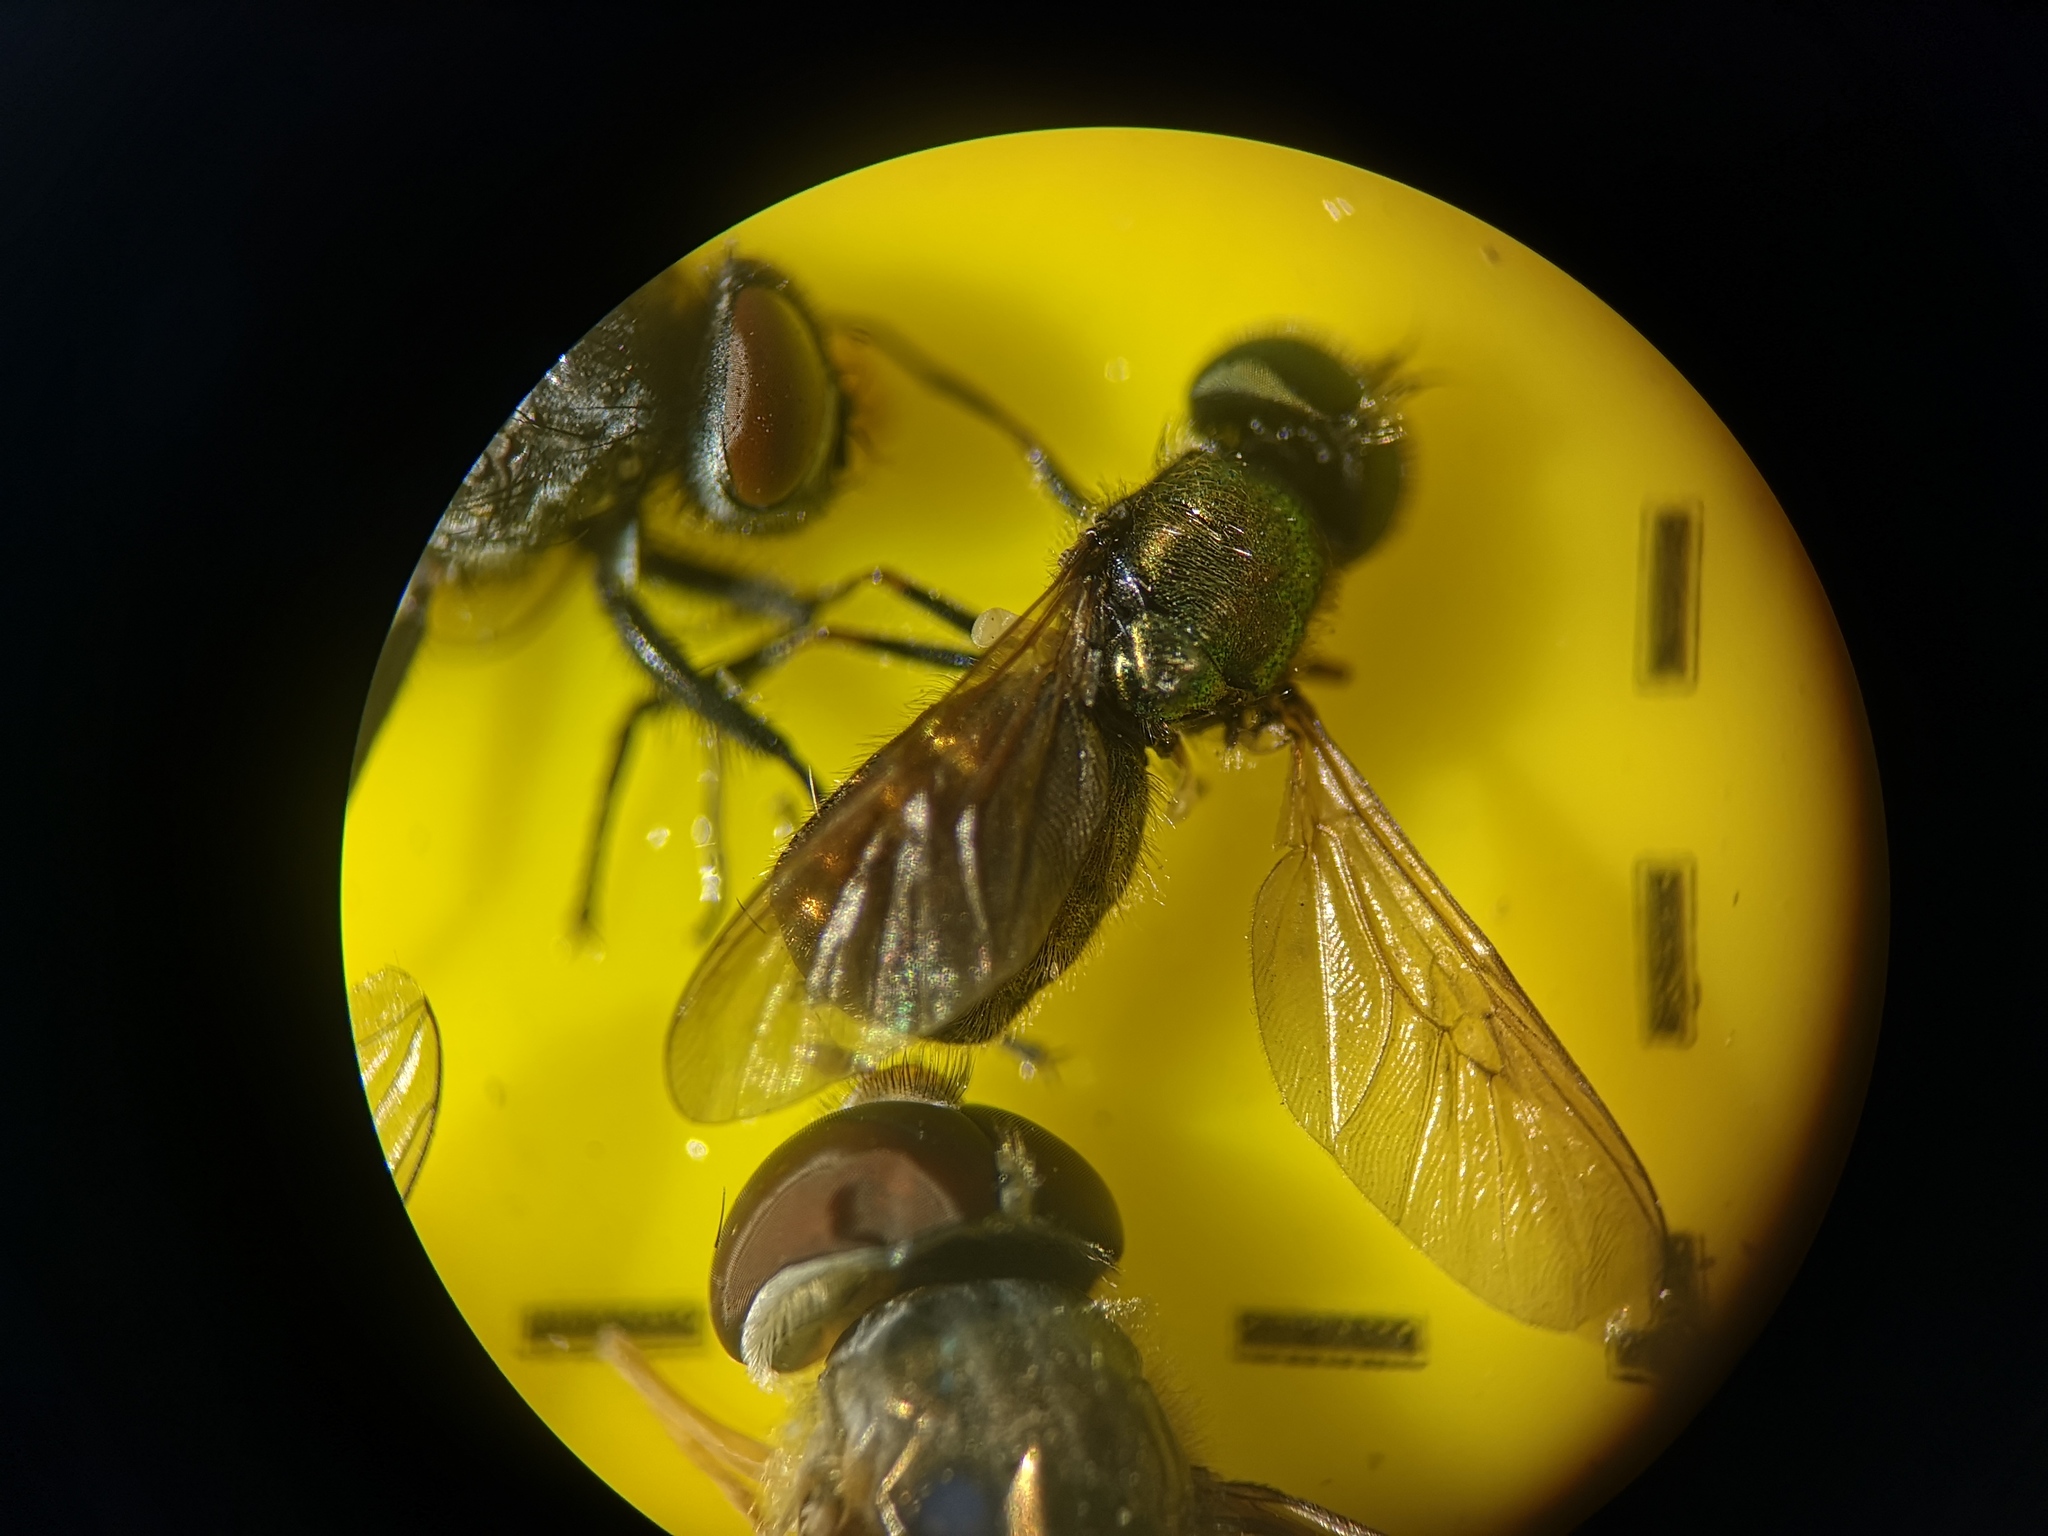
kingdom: Animalia
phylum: Arthropoda
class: Insecta
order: Diptera
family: Stratiomyidae
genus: Chloromyia
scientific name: Chloromyia formosa
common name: Soldier fly
